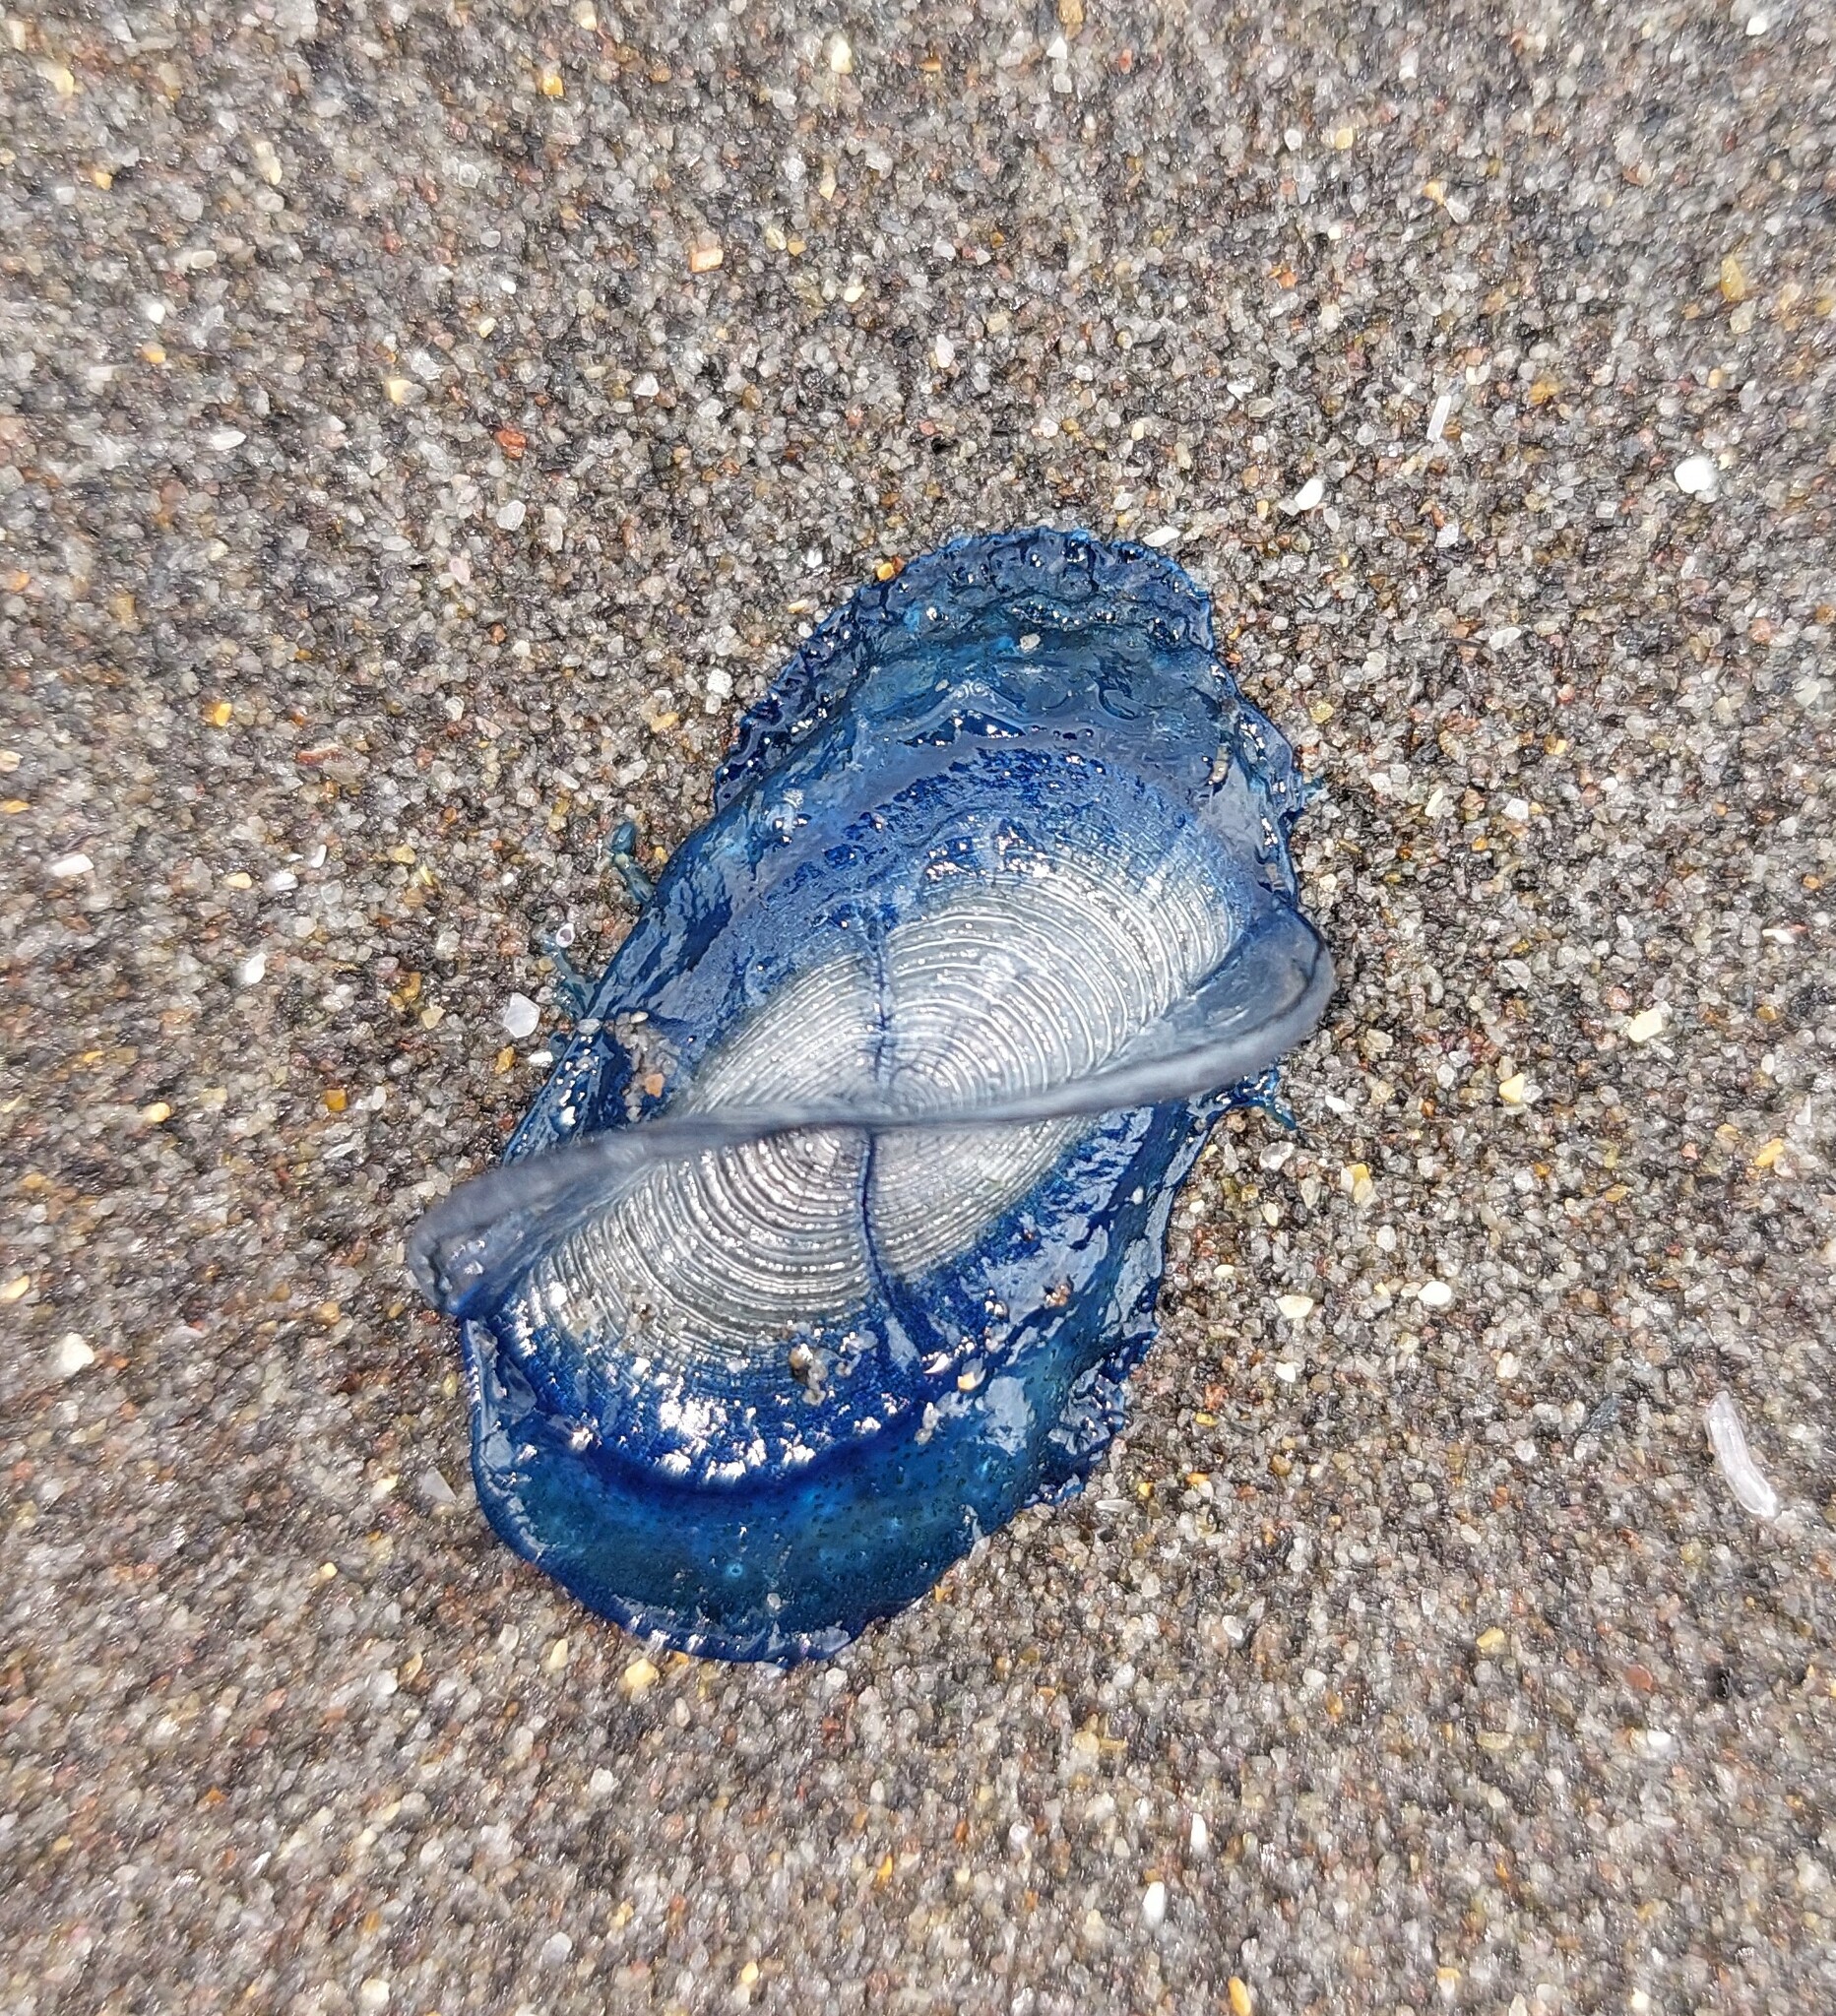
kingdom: Animalia
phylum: Cnidaria
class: Hydrozoa
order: Anthoathecata
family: Porpitidae
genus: Velella
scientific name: Velella velella
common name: By-the-wind-sailor
